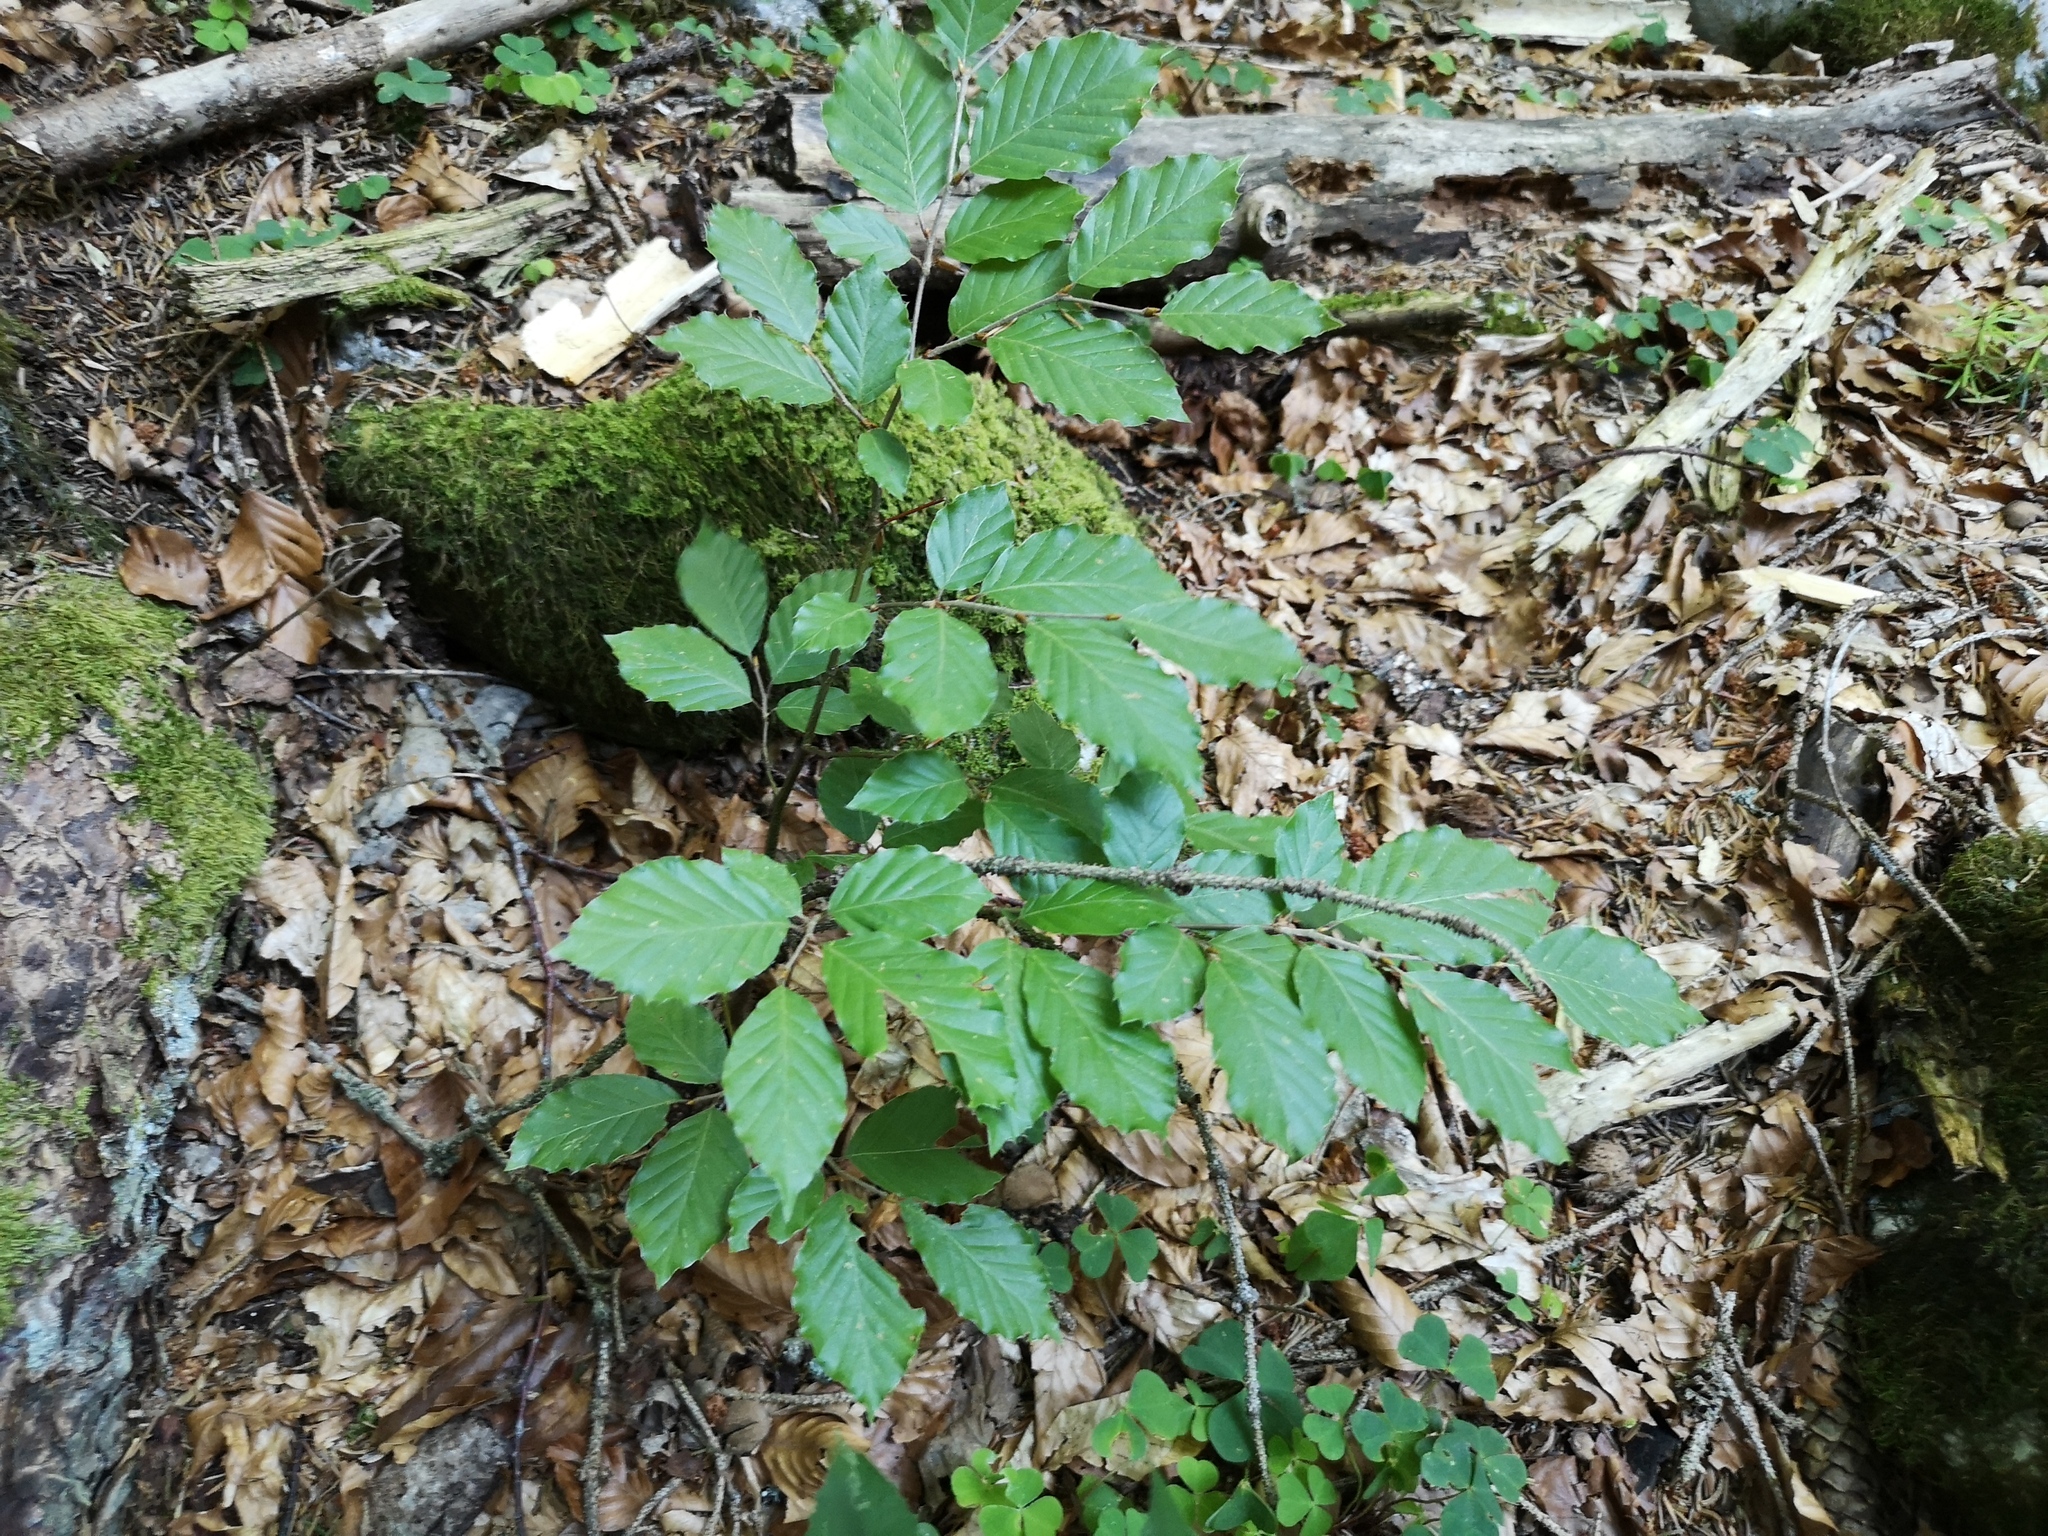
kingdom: Plantae
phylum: Tracheophyta
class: Magnoliopsida
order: Fagales
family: Fagaceae
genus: Fagus
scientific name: Fagus sylvatica
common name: Beech
